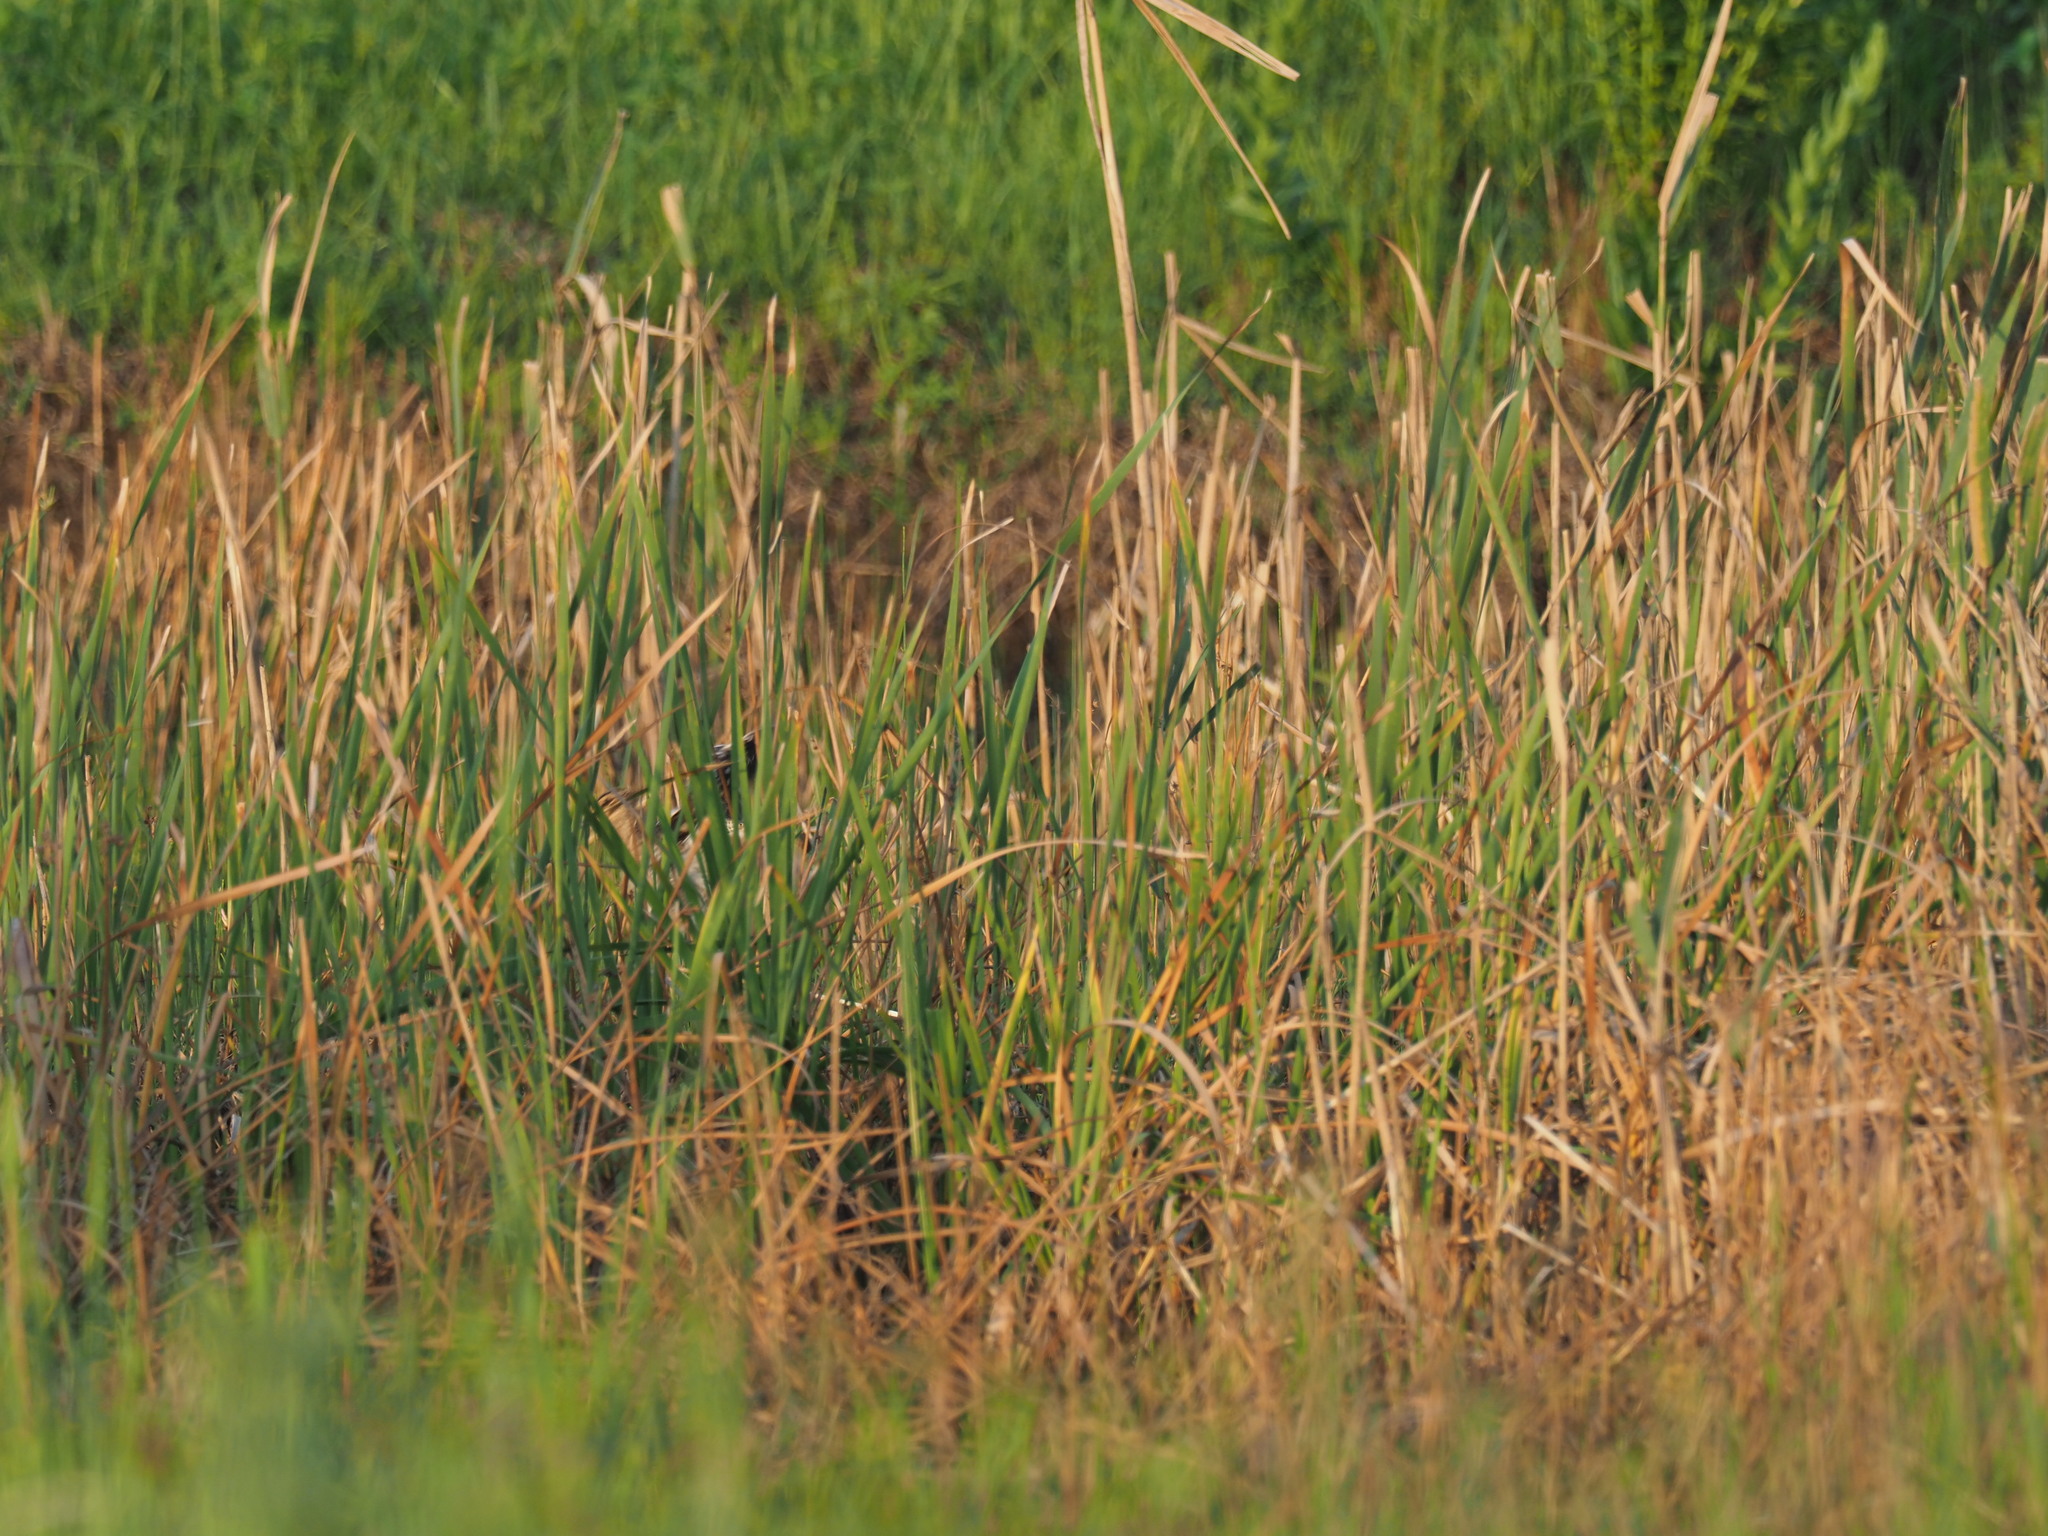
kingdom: Animalia
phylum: Chordata
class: Aves
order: Charadriiformes
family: Scolopacidae
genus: Gallinago
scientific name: Gallinago nigripennis
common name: African snipe
